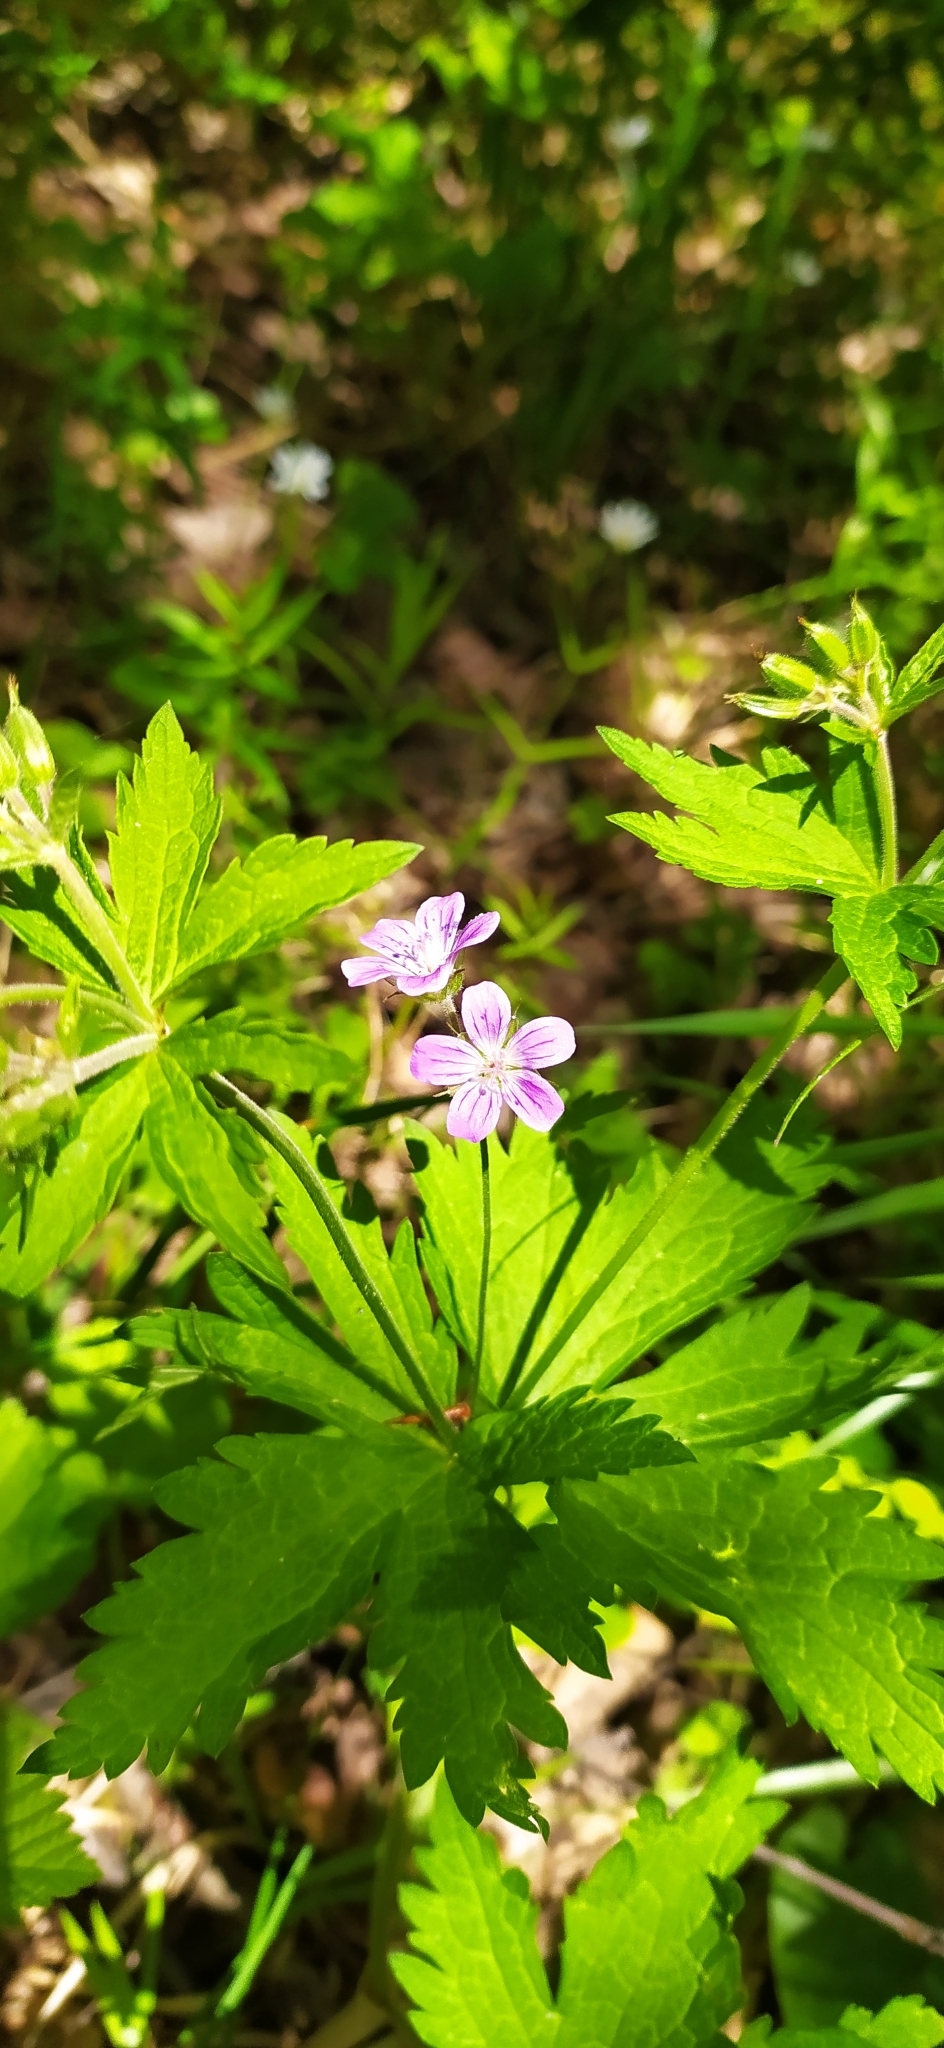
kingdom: Plantae
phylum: Tracheophyta
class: Magnoliopsida
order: Geraniales
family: Geraniaceae
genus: Geranium
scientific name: Geranium sylvaticum
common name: Wood crane's-bill
